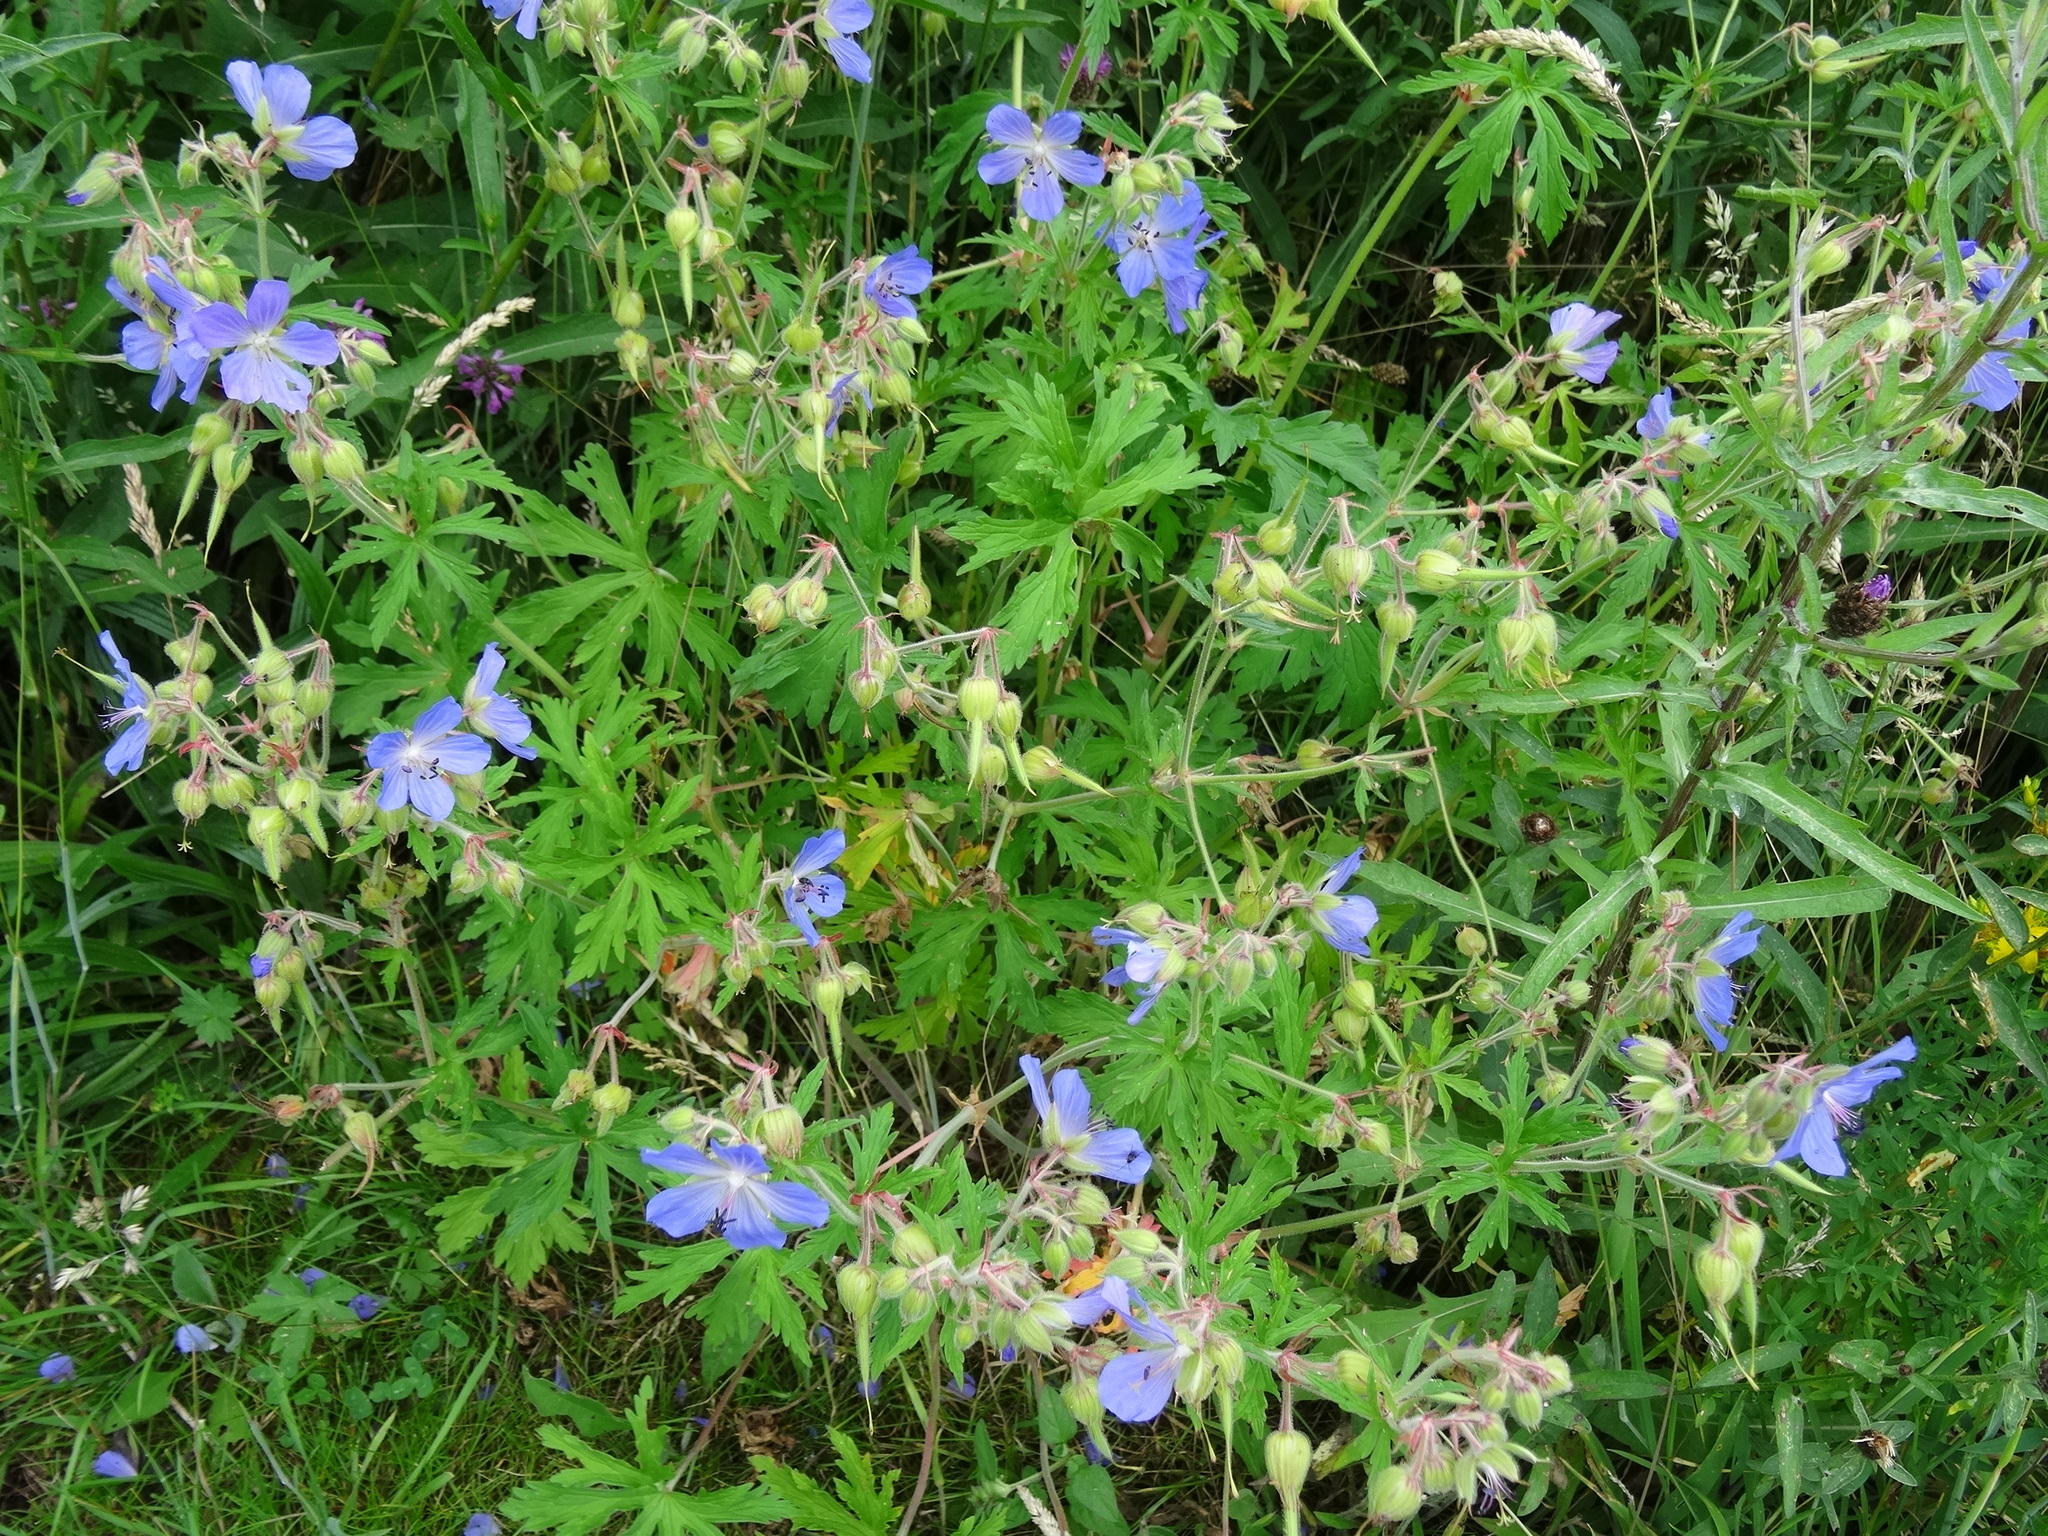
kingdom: Plantae
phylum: Tracheophyta
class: Magnoliopsida
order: Geraniales
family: Geraniaceae
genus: Geranium
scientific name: Geranium pratense
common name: Meadow crane's-bill
